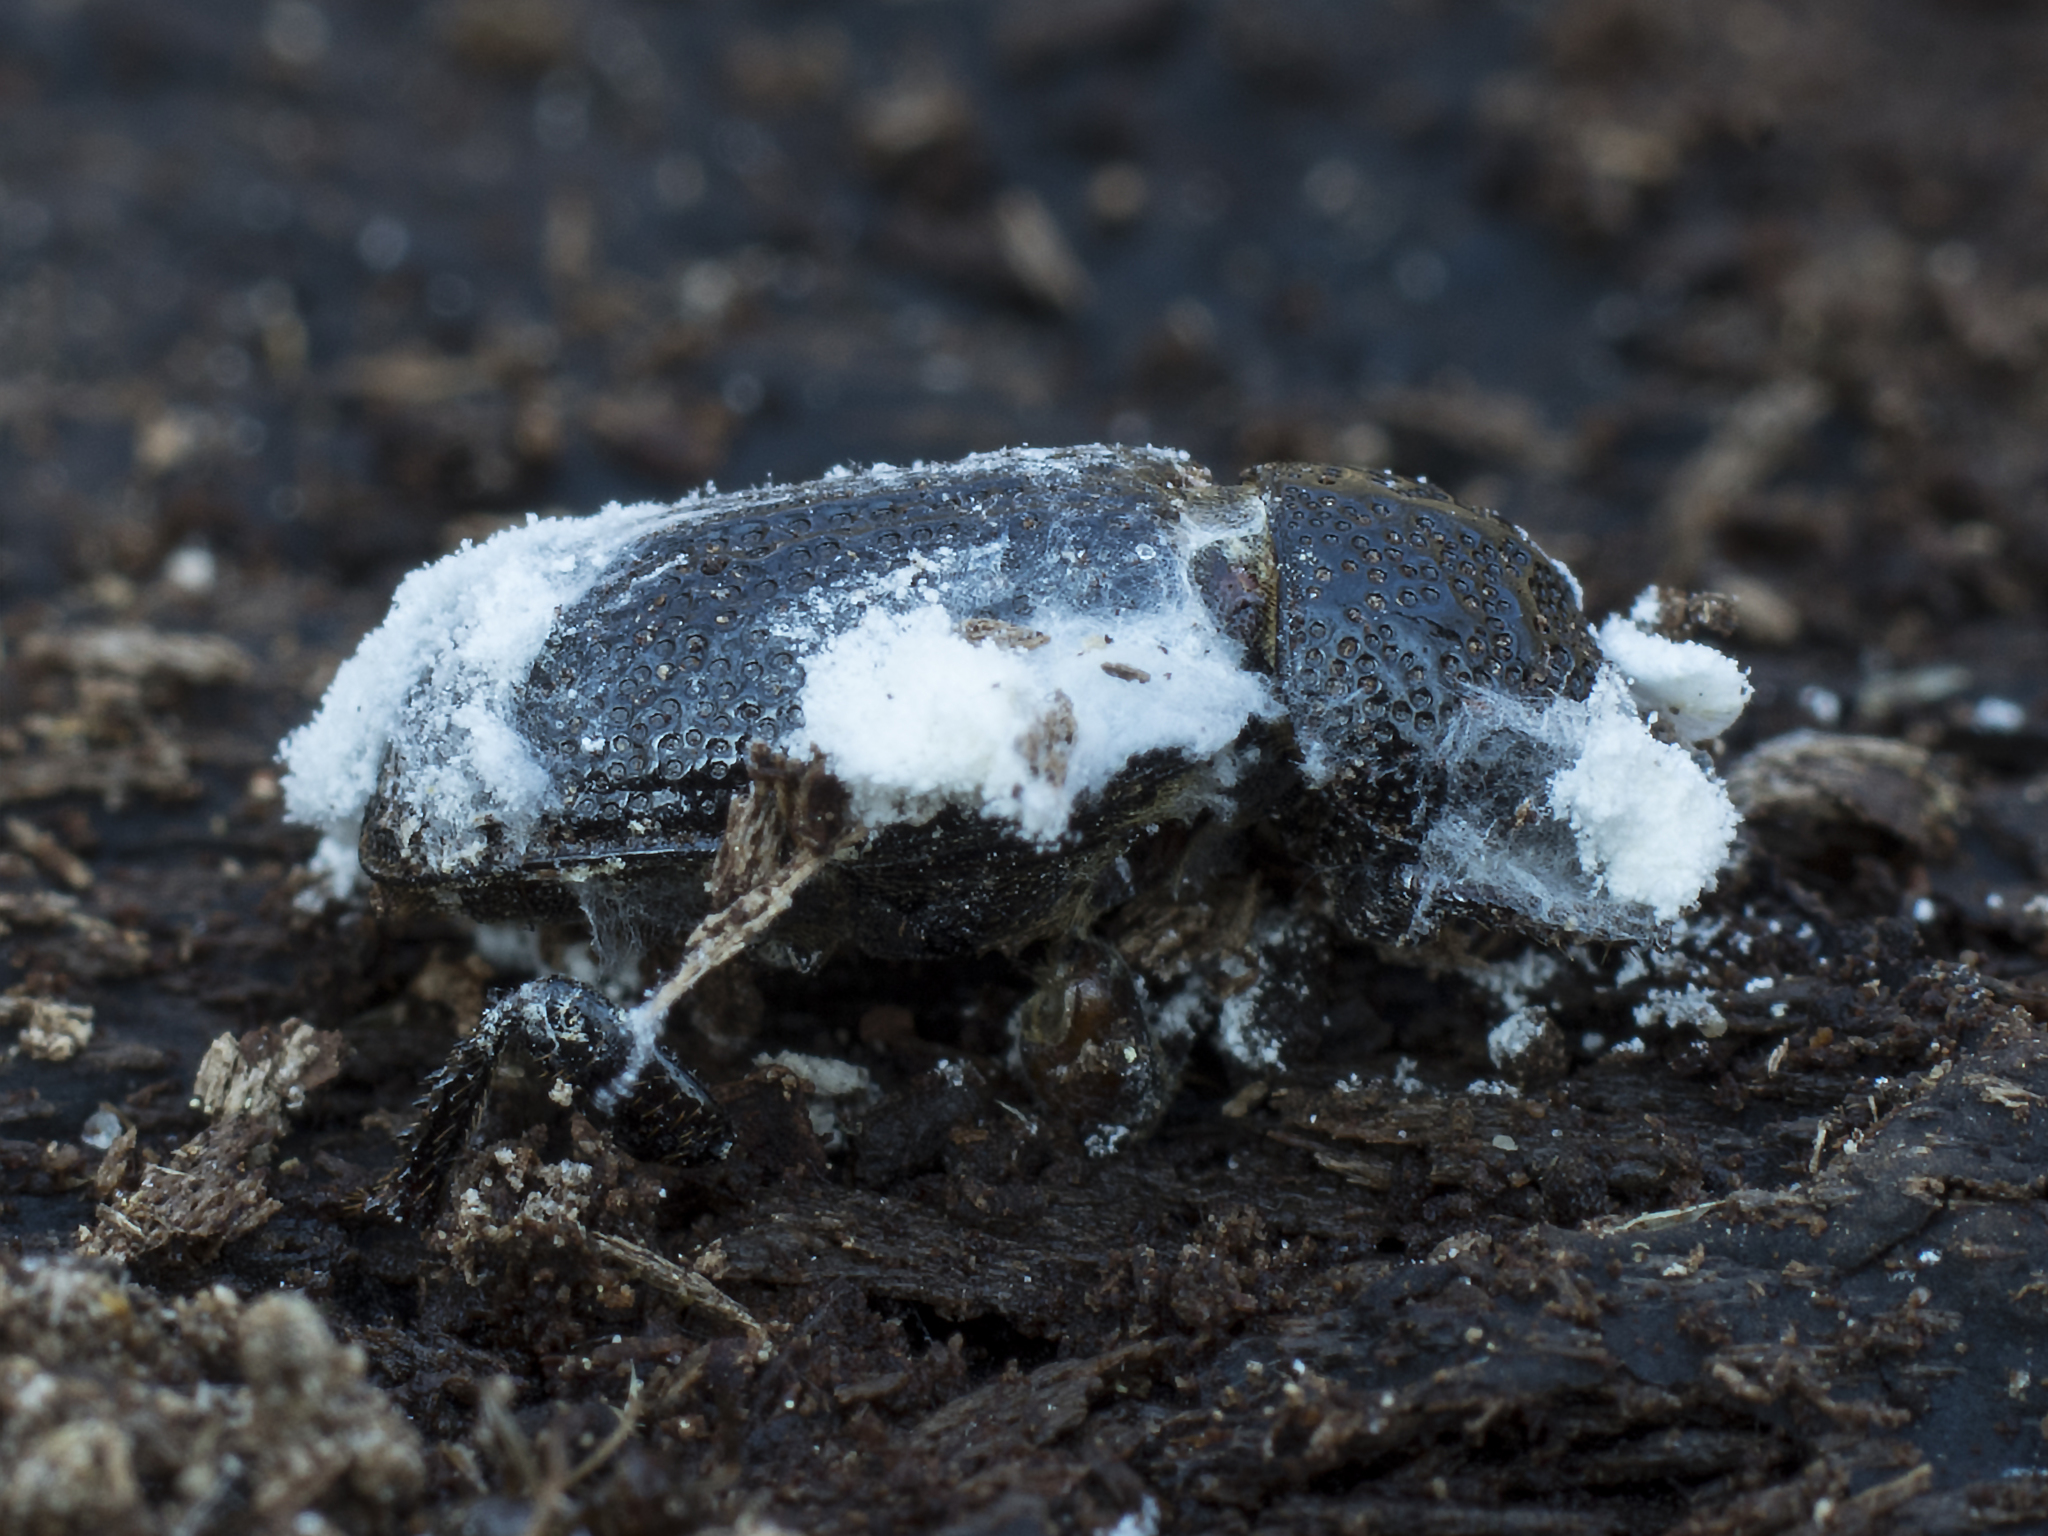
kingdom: Animalia
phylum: Arthropoda
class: Insecta
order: Coleoptera
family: Lucanidae
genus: Sinodendron
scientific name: Sinodendron cylindricum
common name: Rhinoceros beetle
